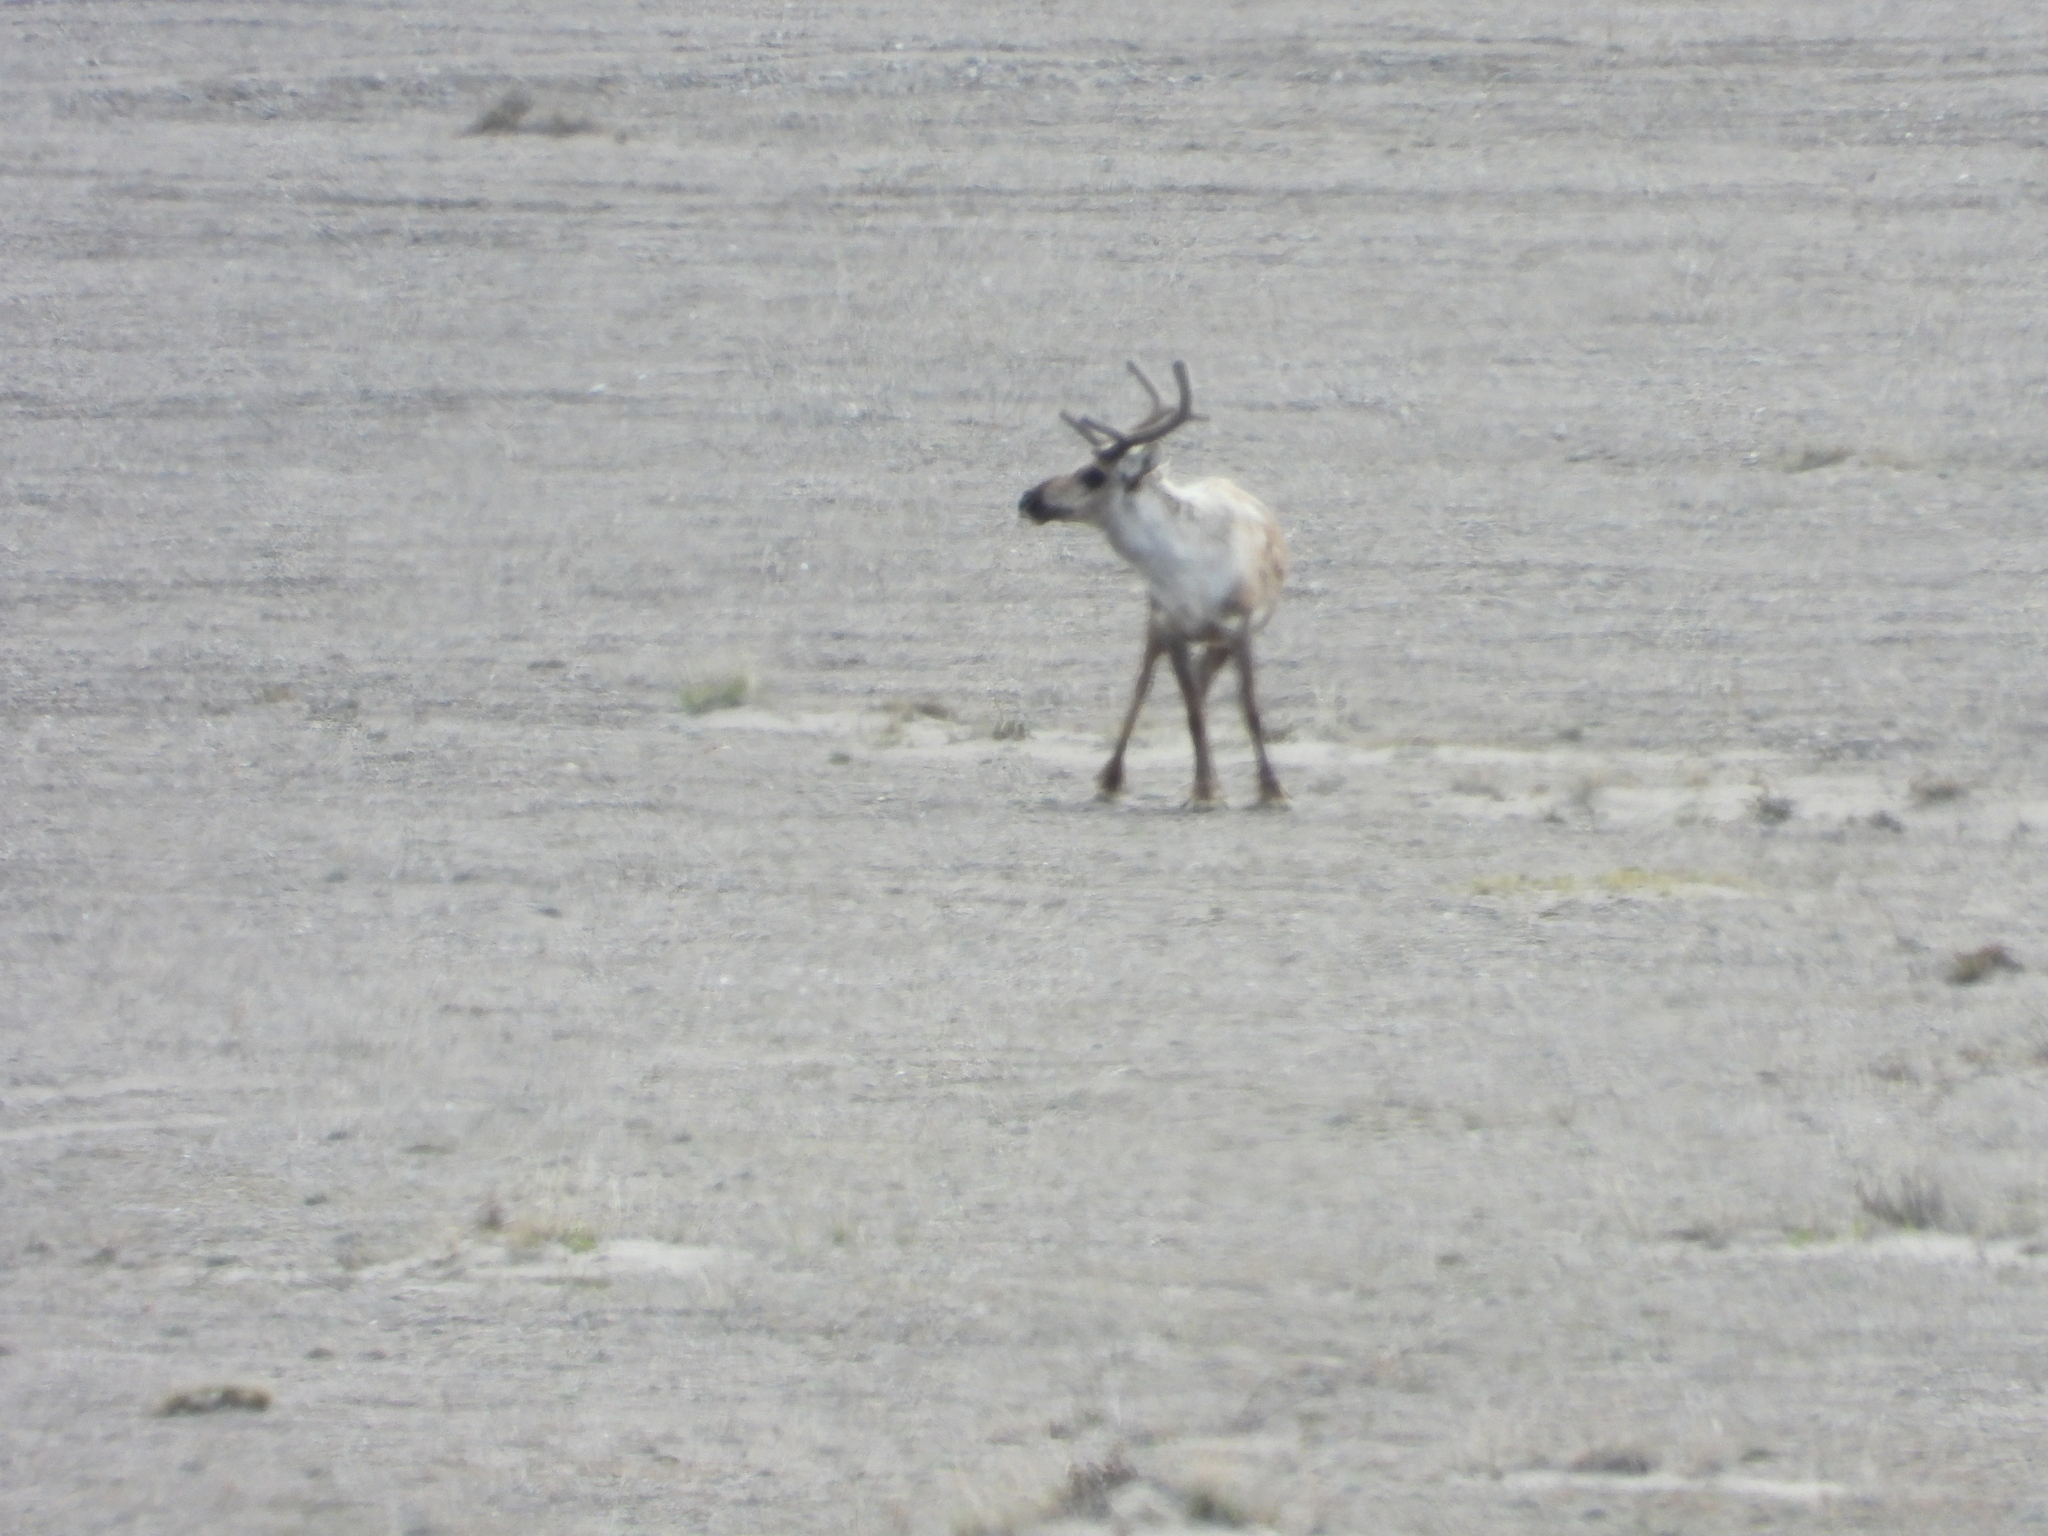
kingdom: Animalia
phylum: Chordata
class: Mammalia
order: Artiodactyla
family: Cervidae
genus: Rangifer
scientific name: Rangifer tarandus
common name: Reindeer
